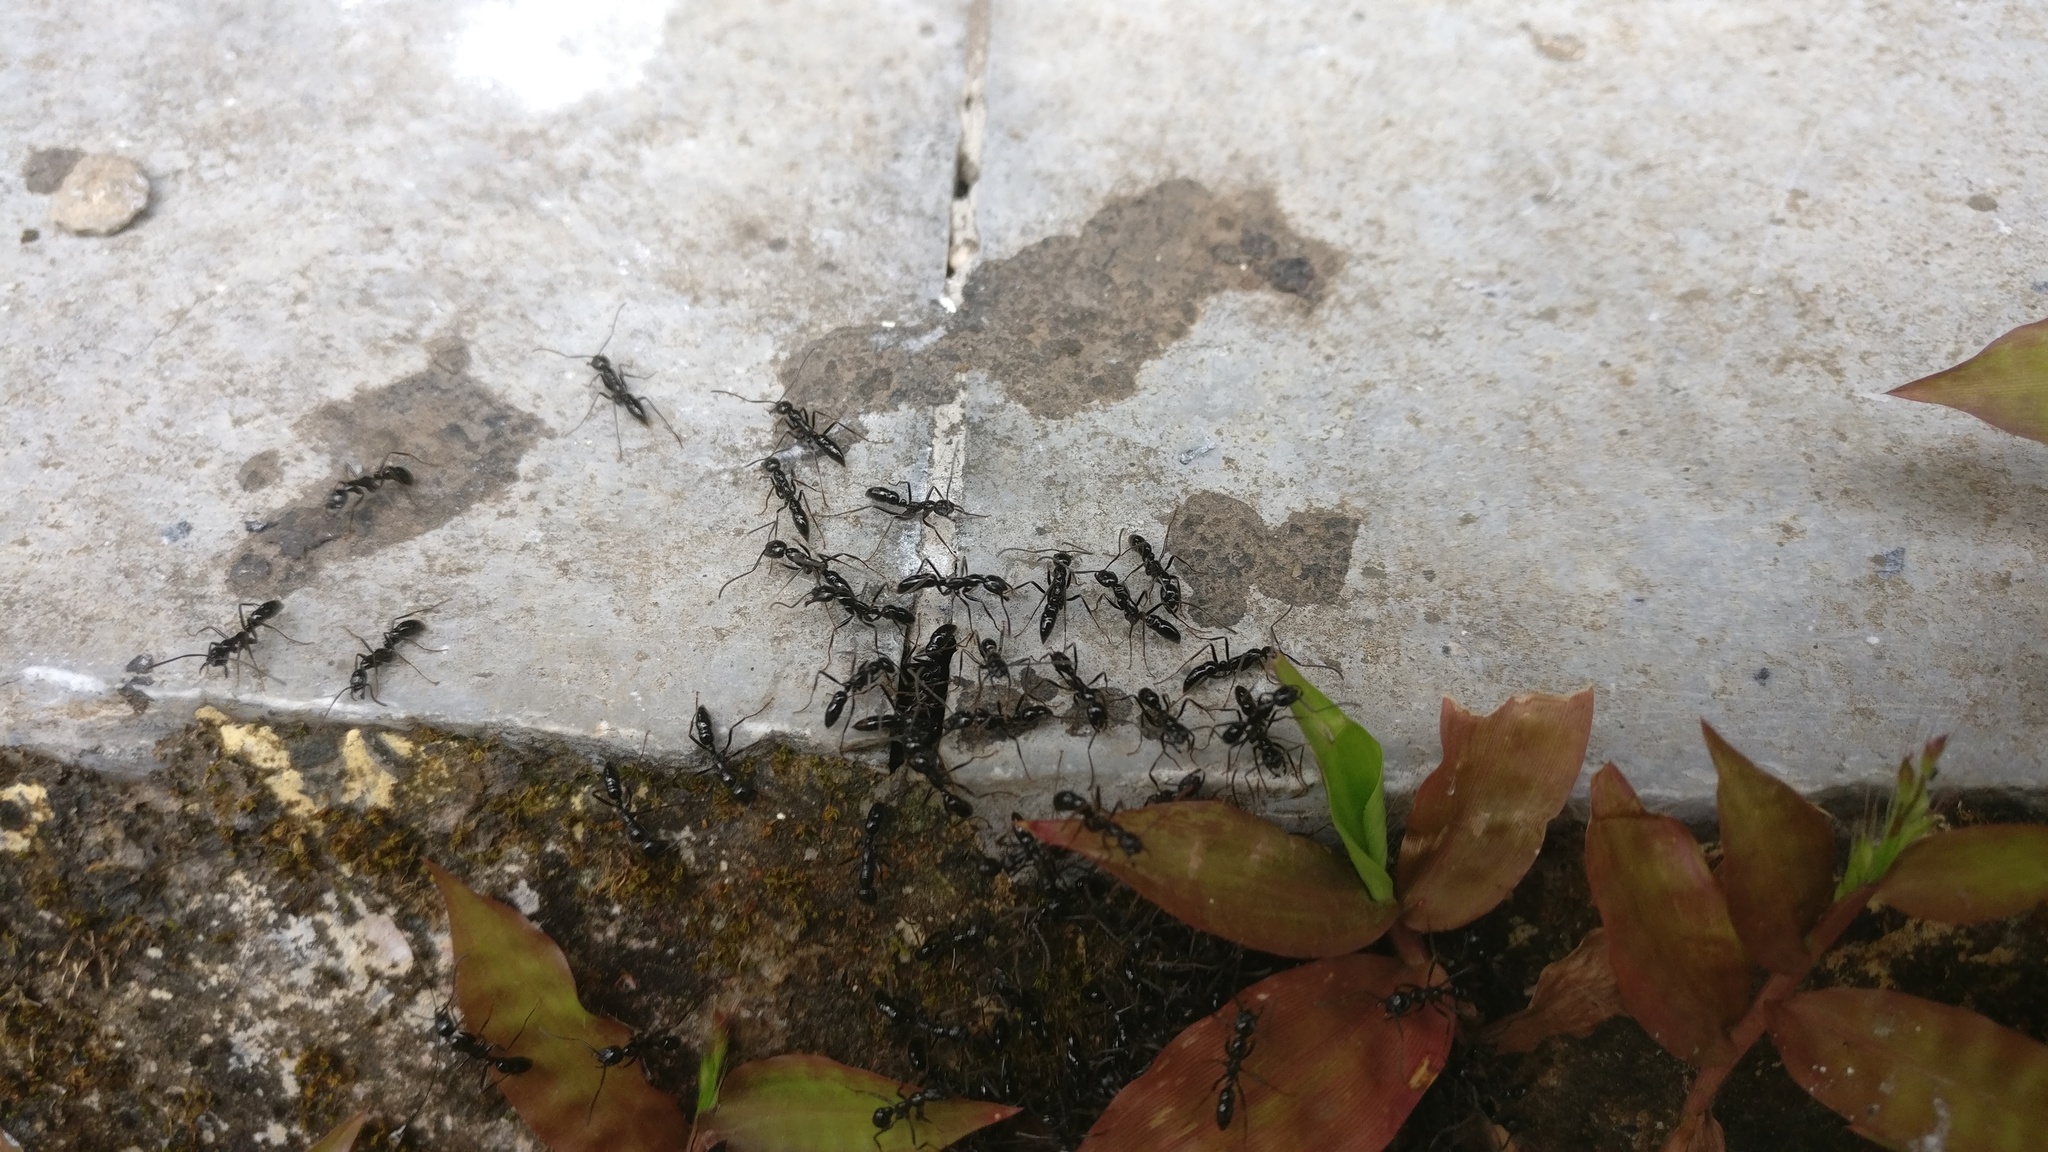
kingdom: Animalia
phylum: Arthropoda
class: Insecta
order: Hymenoptera
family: Formicidae
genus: Leptogenys
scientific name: Leptogenys diminuta
